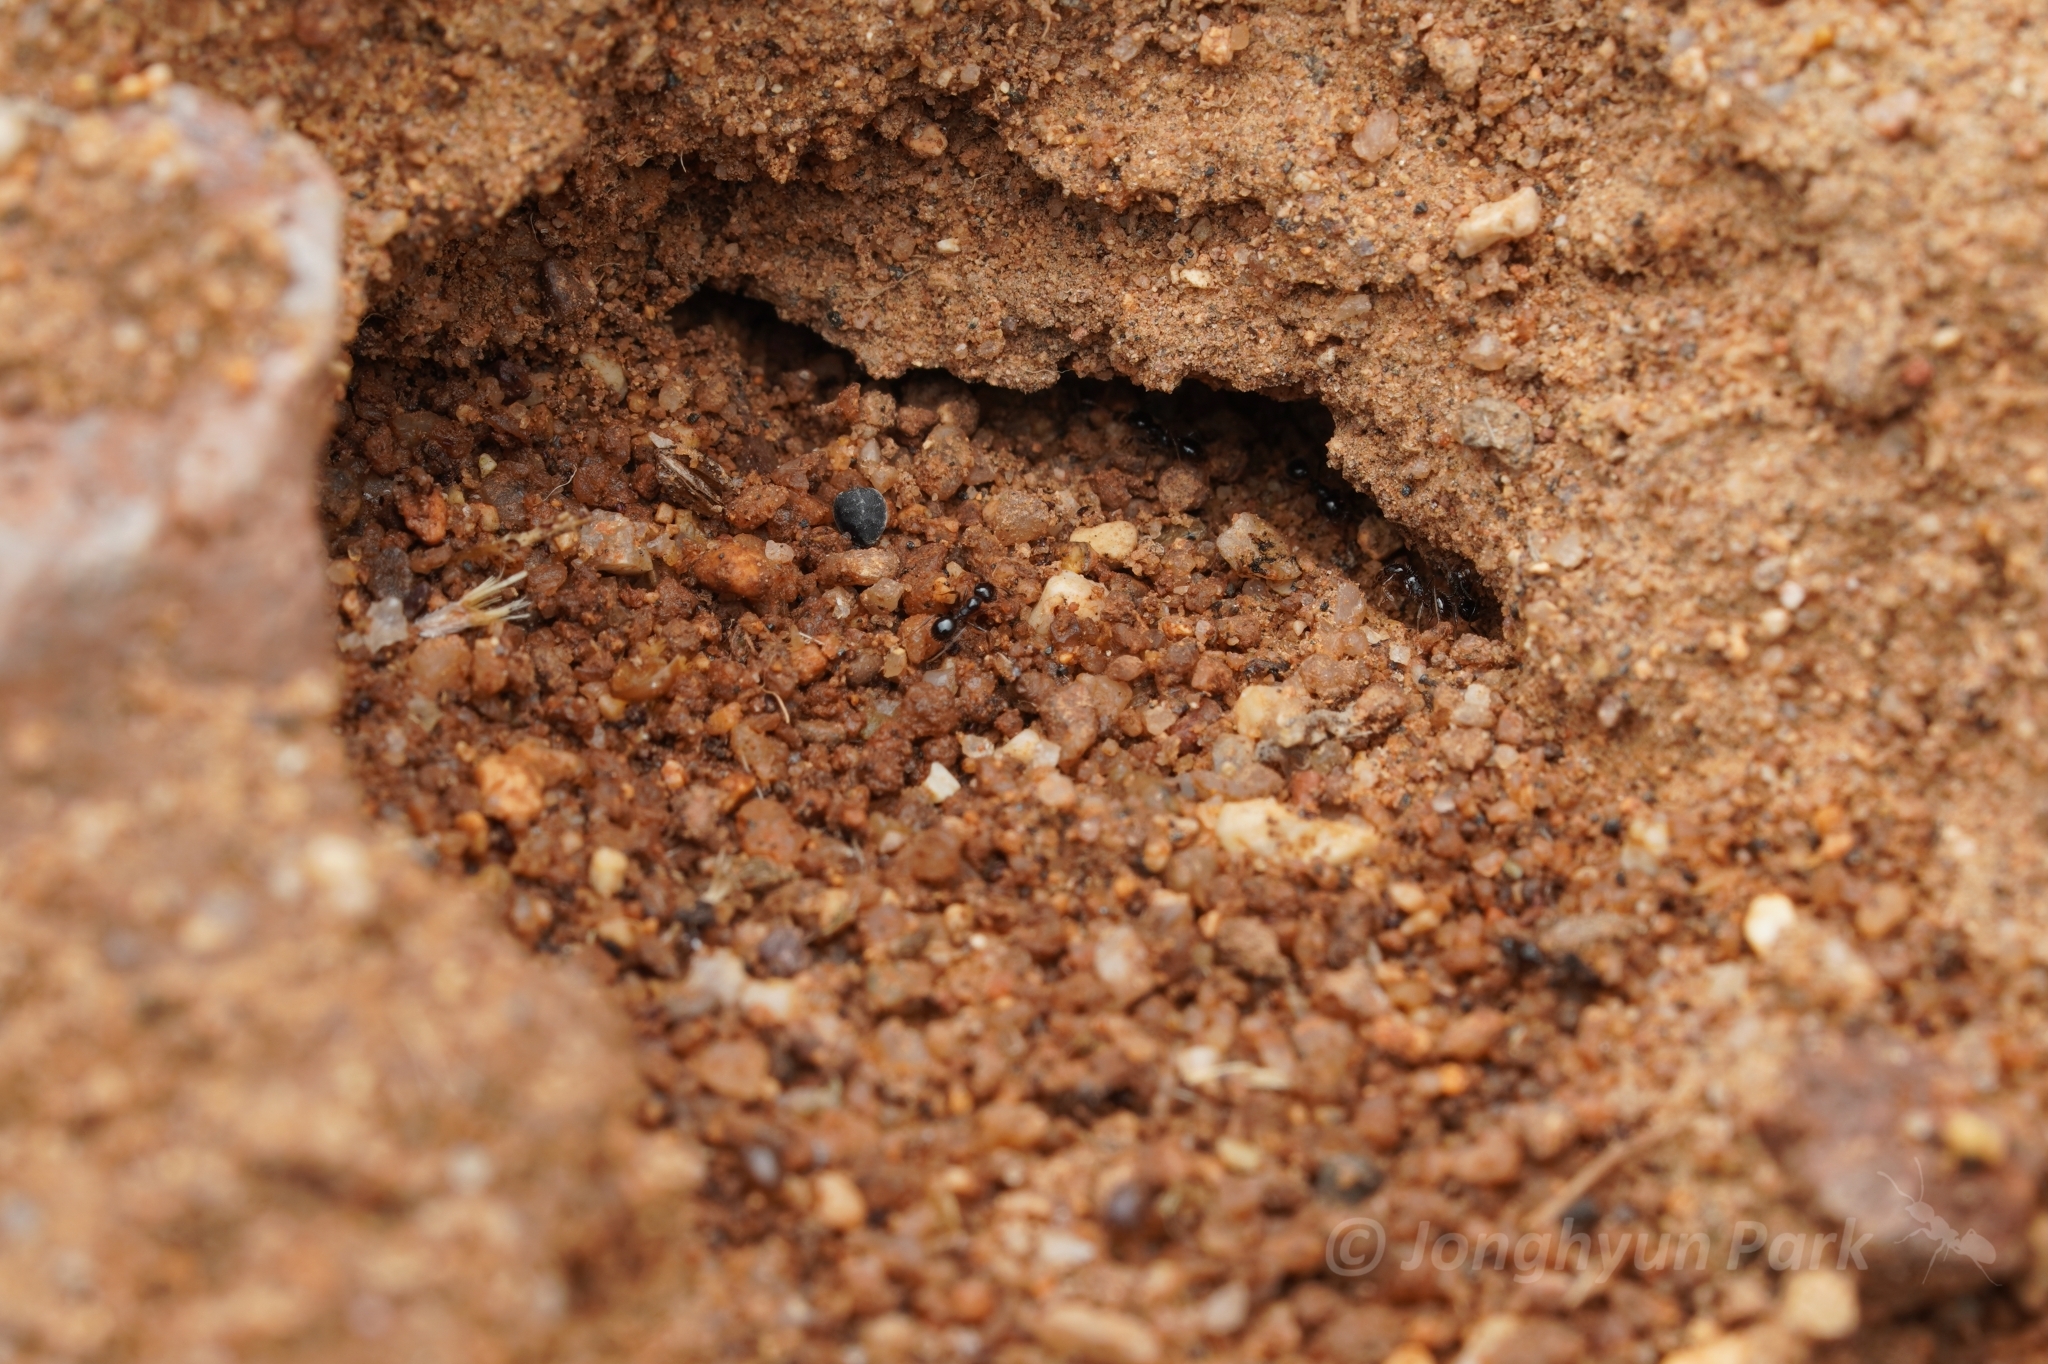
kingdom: Animalia
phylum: Arthropoda
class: Insecta
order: Hymenoptera
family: Formicidae
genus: Pheidole
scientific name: Pheidole xerophila
